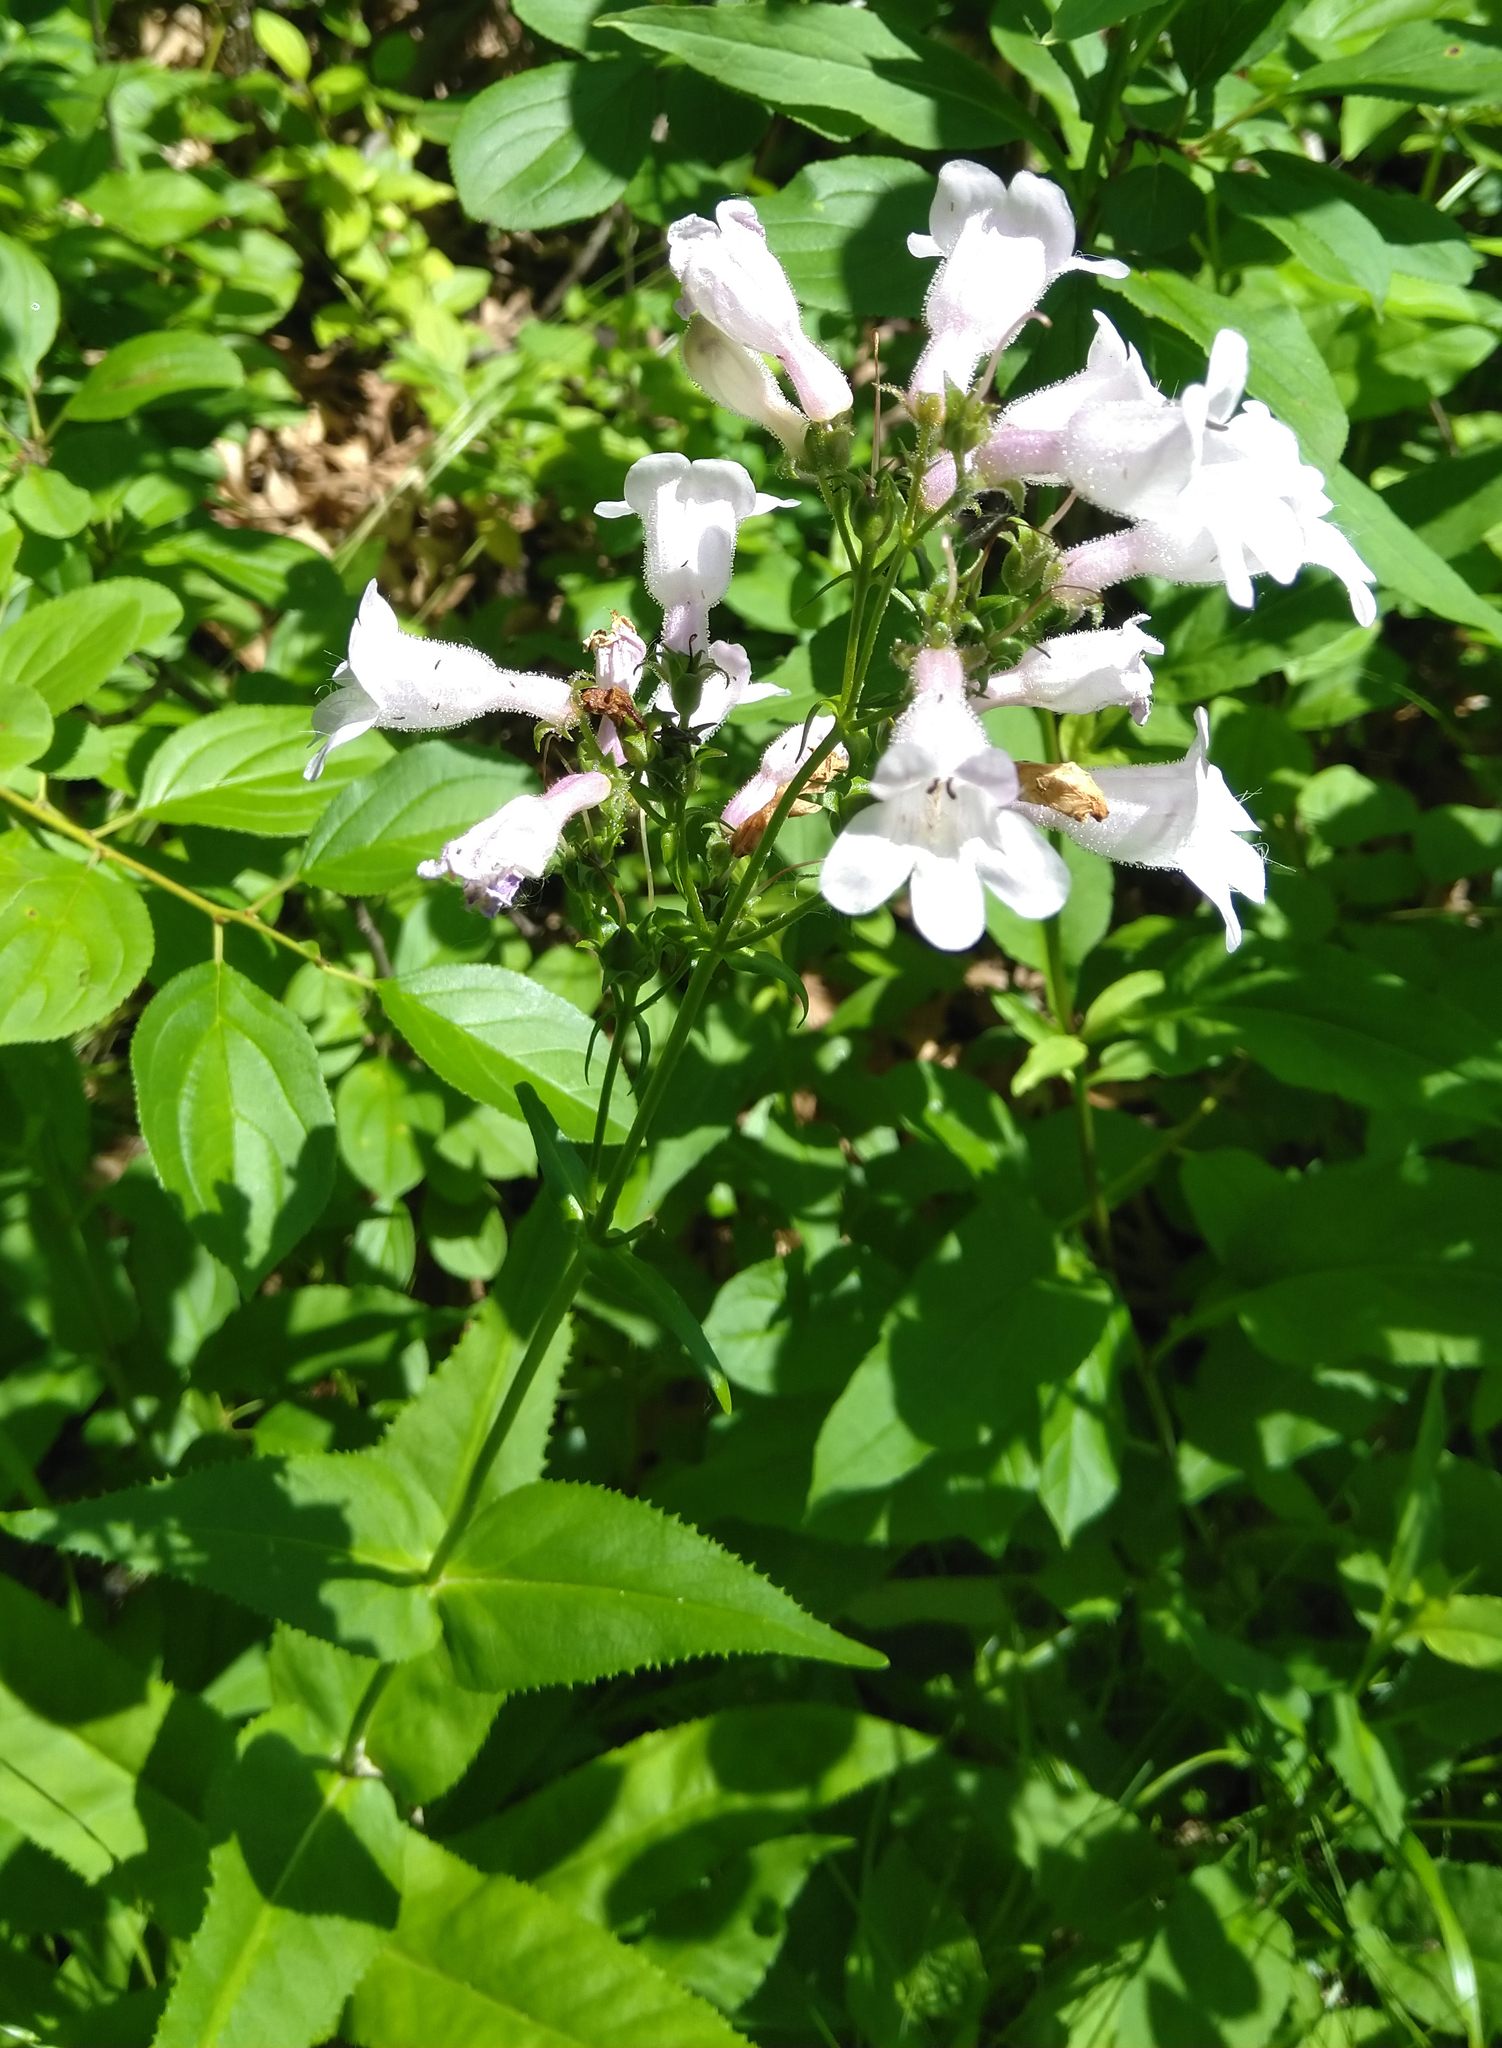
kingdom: Plantae
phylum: Tracheophyta
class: Magnoliopsida
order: Lamiales
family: Plantaginaceae
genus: Penstemon
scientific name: Penstemon digitalis
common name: Foxglove beardtongue
